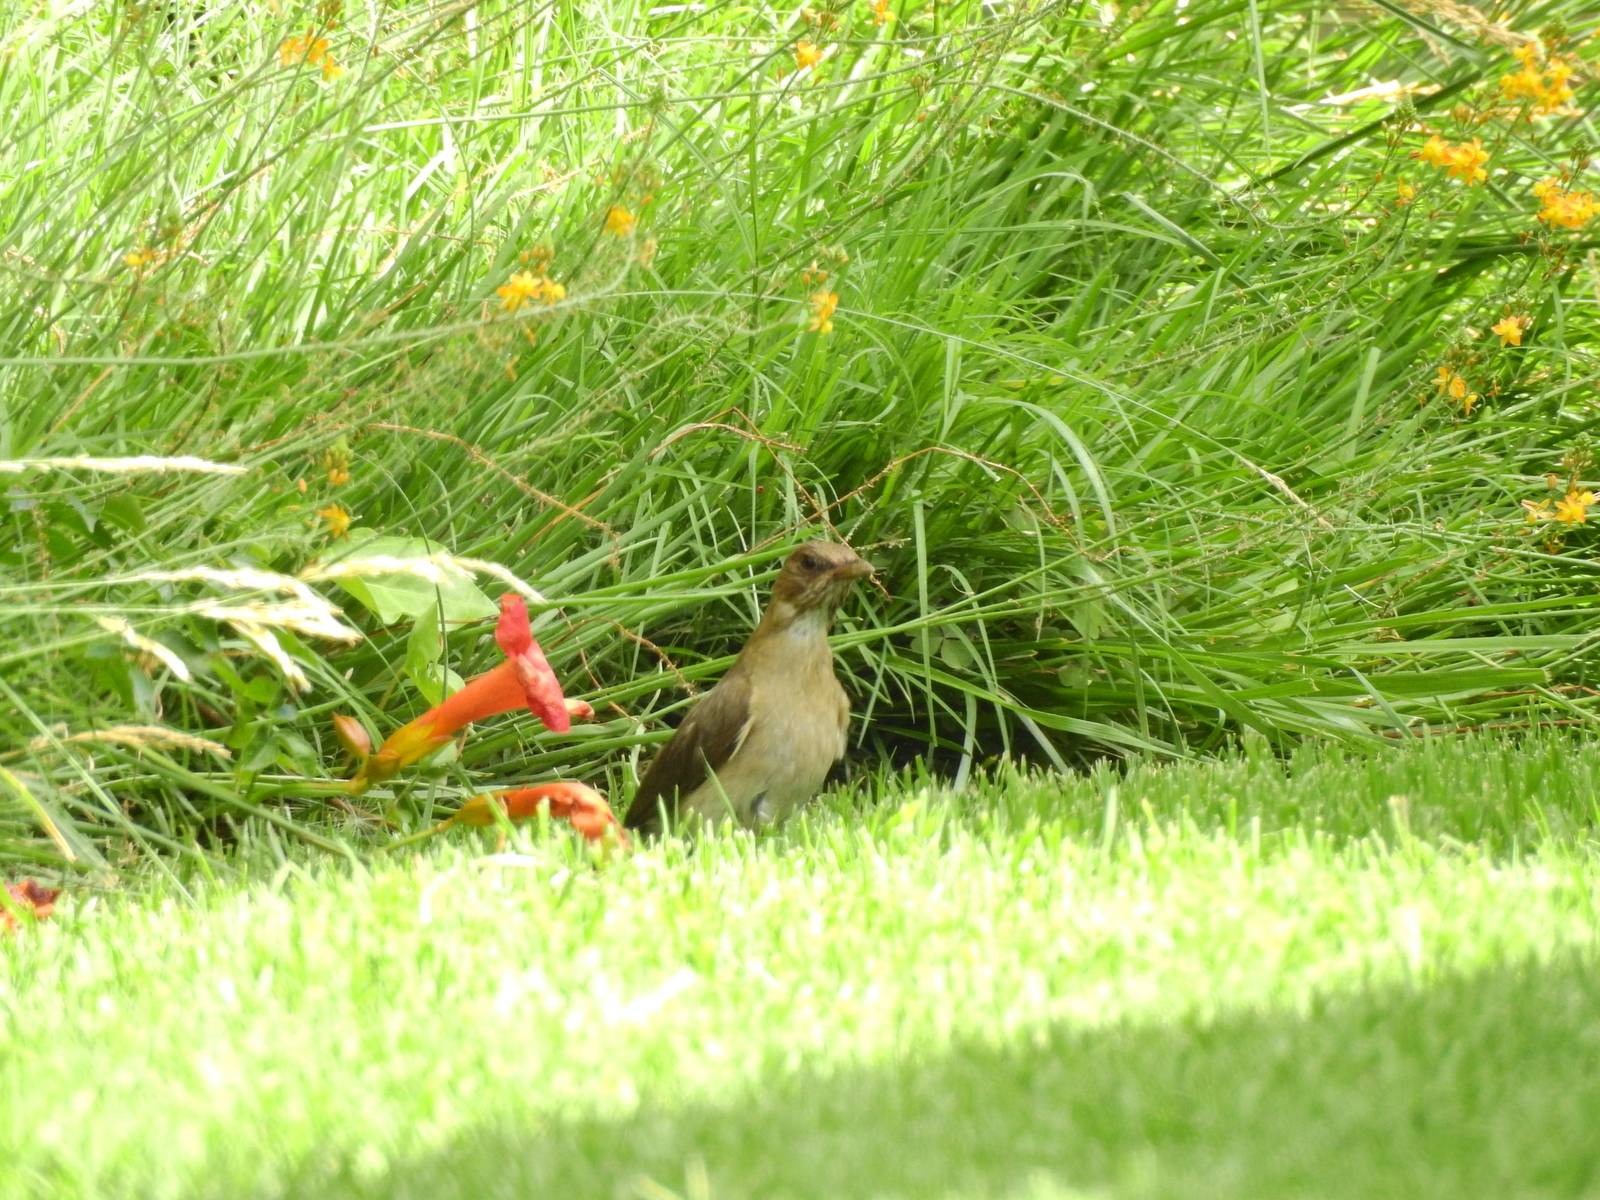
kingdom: Animalia
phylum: Chordata
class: Aves
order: Passeriformes
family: Turdidae
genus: Turdus
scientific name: Turdus amaurochalinus
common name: Creamy-bellied thrush
